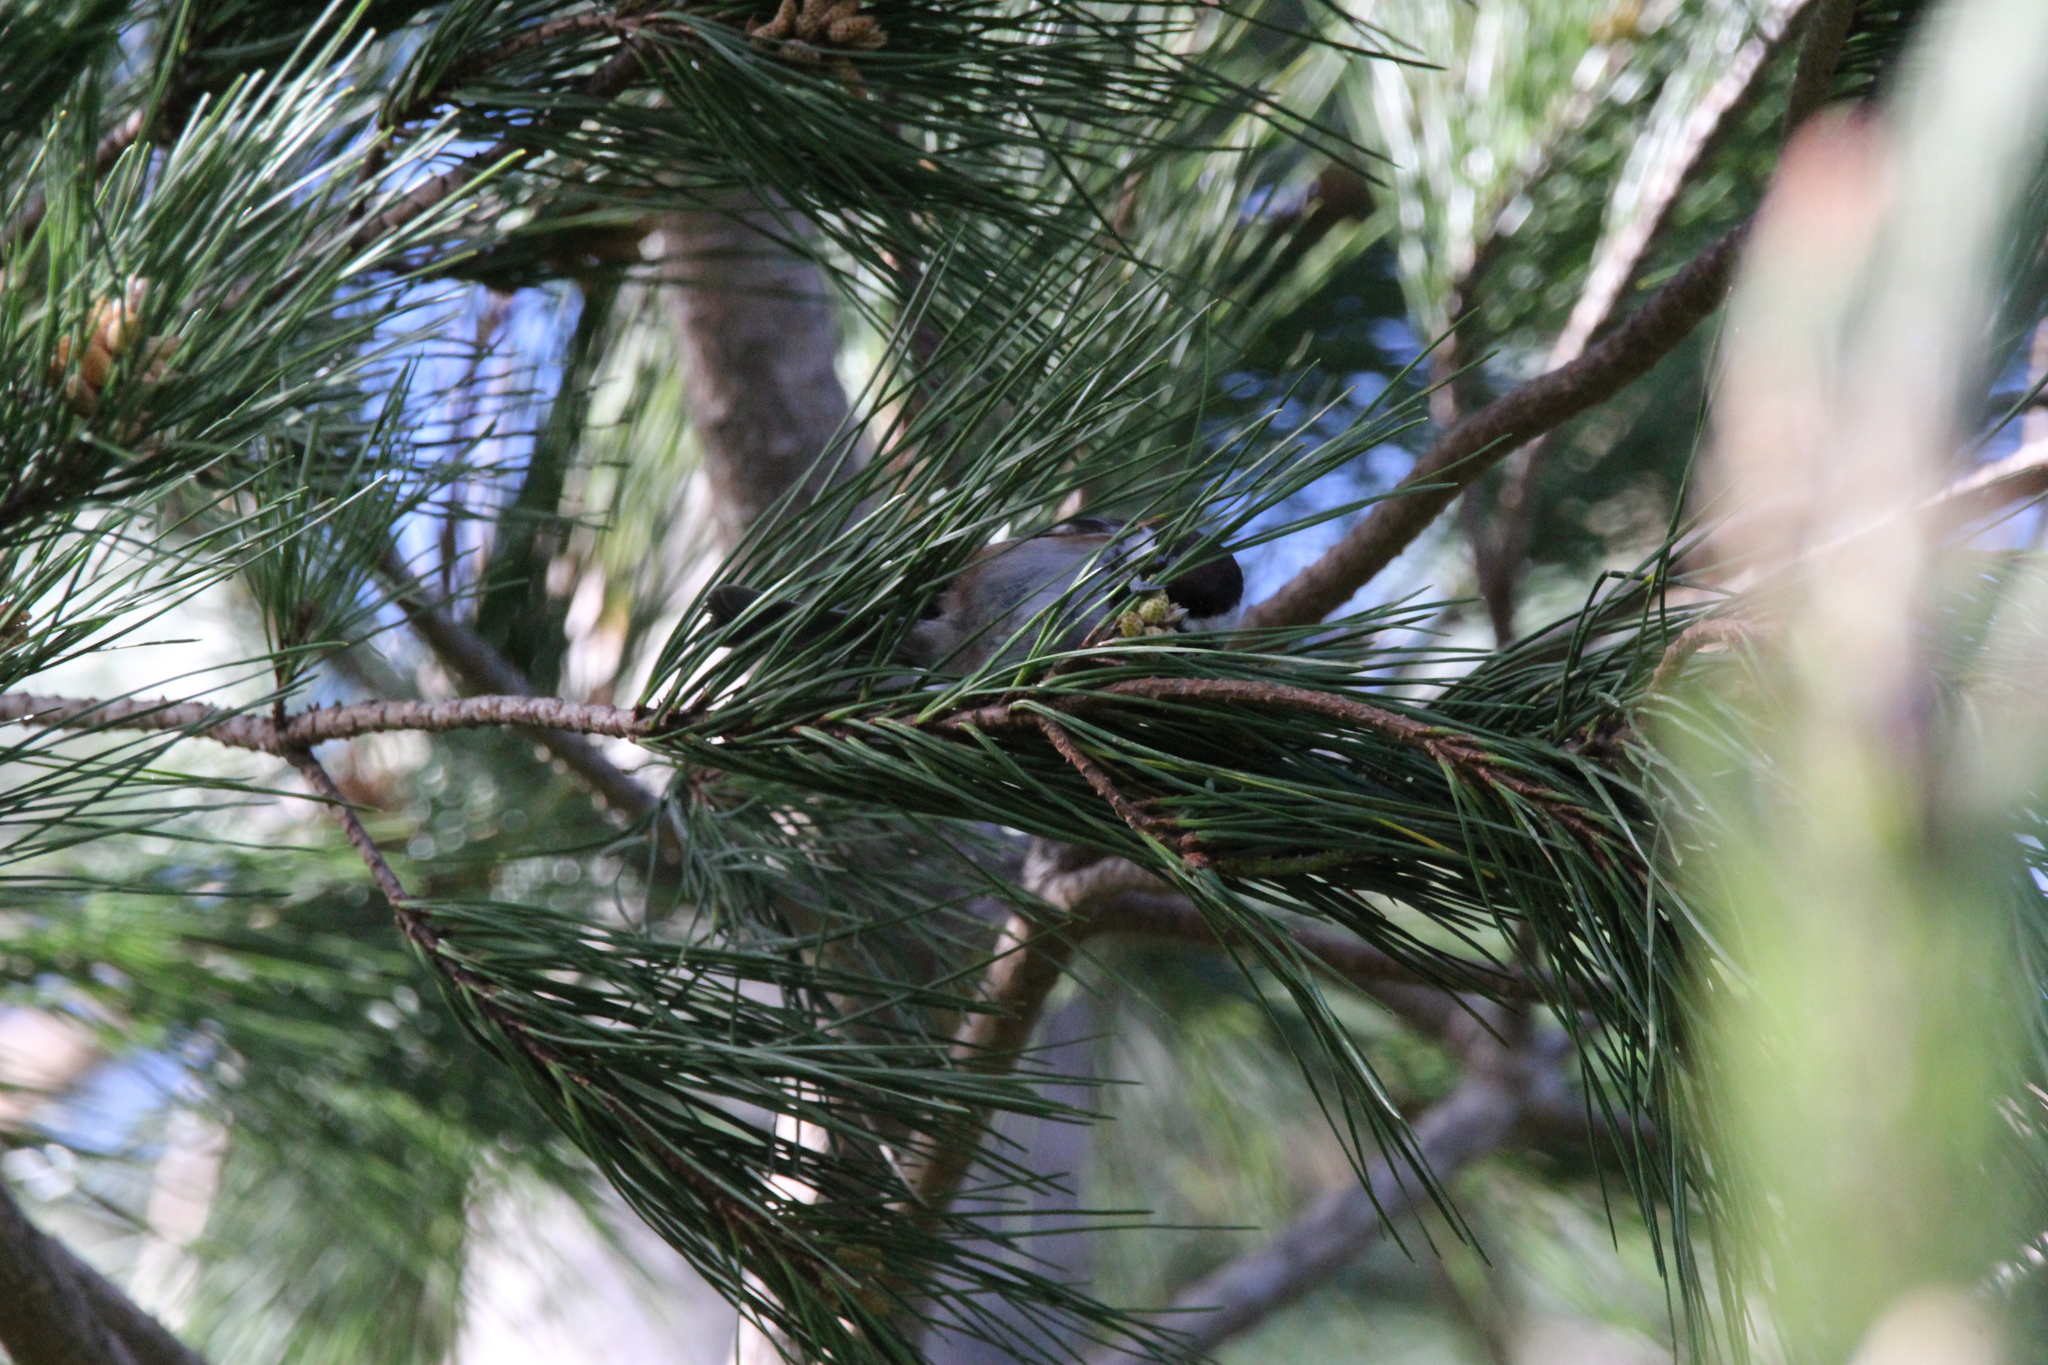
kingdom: Animalia
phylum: Chordata
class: Aves
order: Passeriformes
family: Paridae
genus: Poecile
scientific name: Poecile rufescens
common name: Chestnut-backed chickadee
